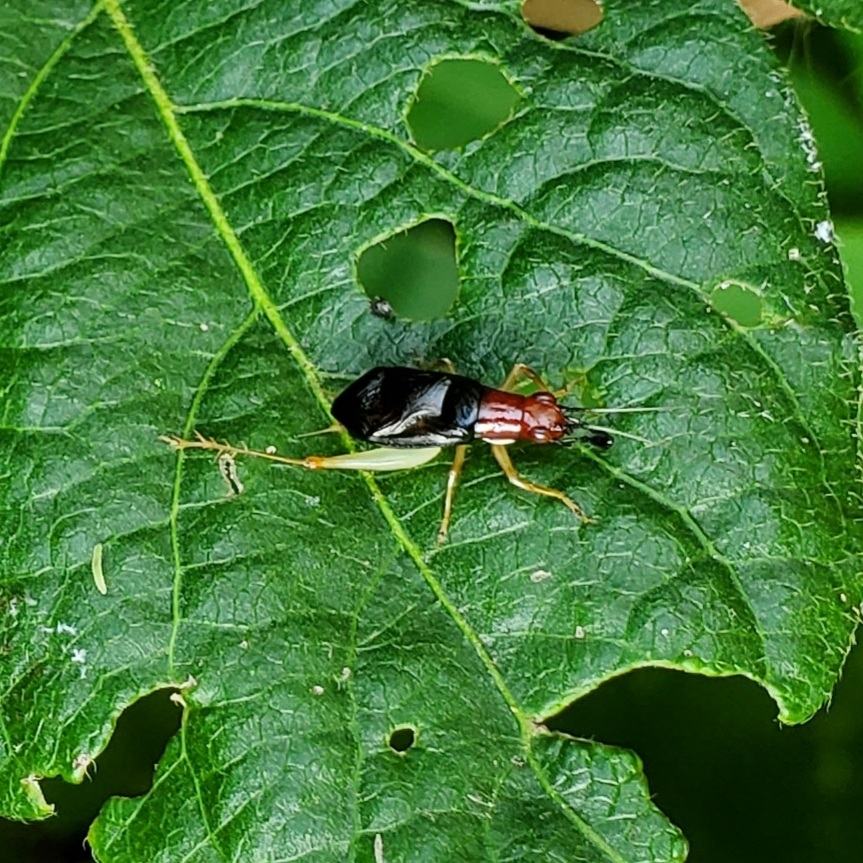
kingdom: Animalia
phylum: Arthropoda
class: Insecta
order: Orthoptera
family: Trigonidiidae
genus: Phyllopalpus
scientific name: Phyllopalpus pulchellus
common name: Handsome trig
